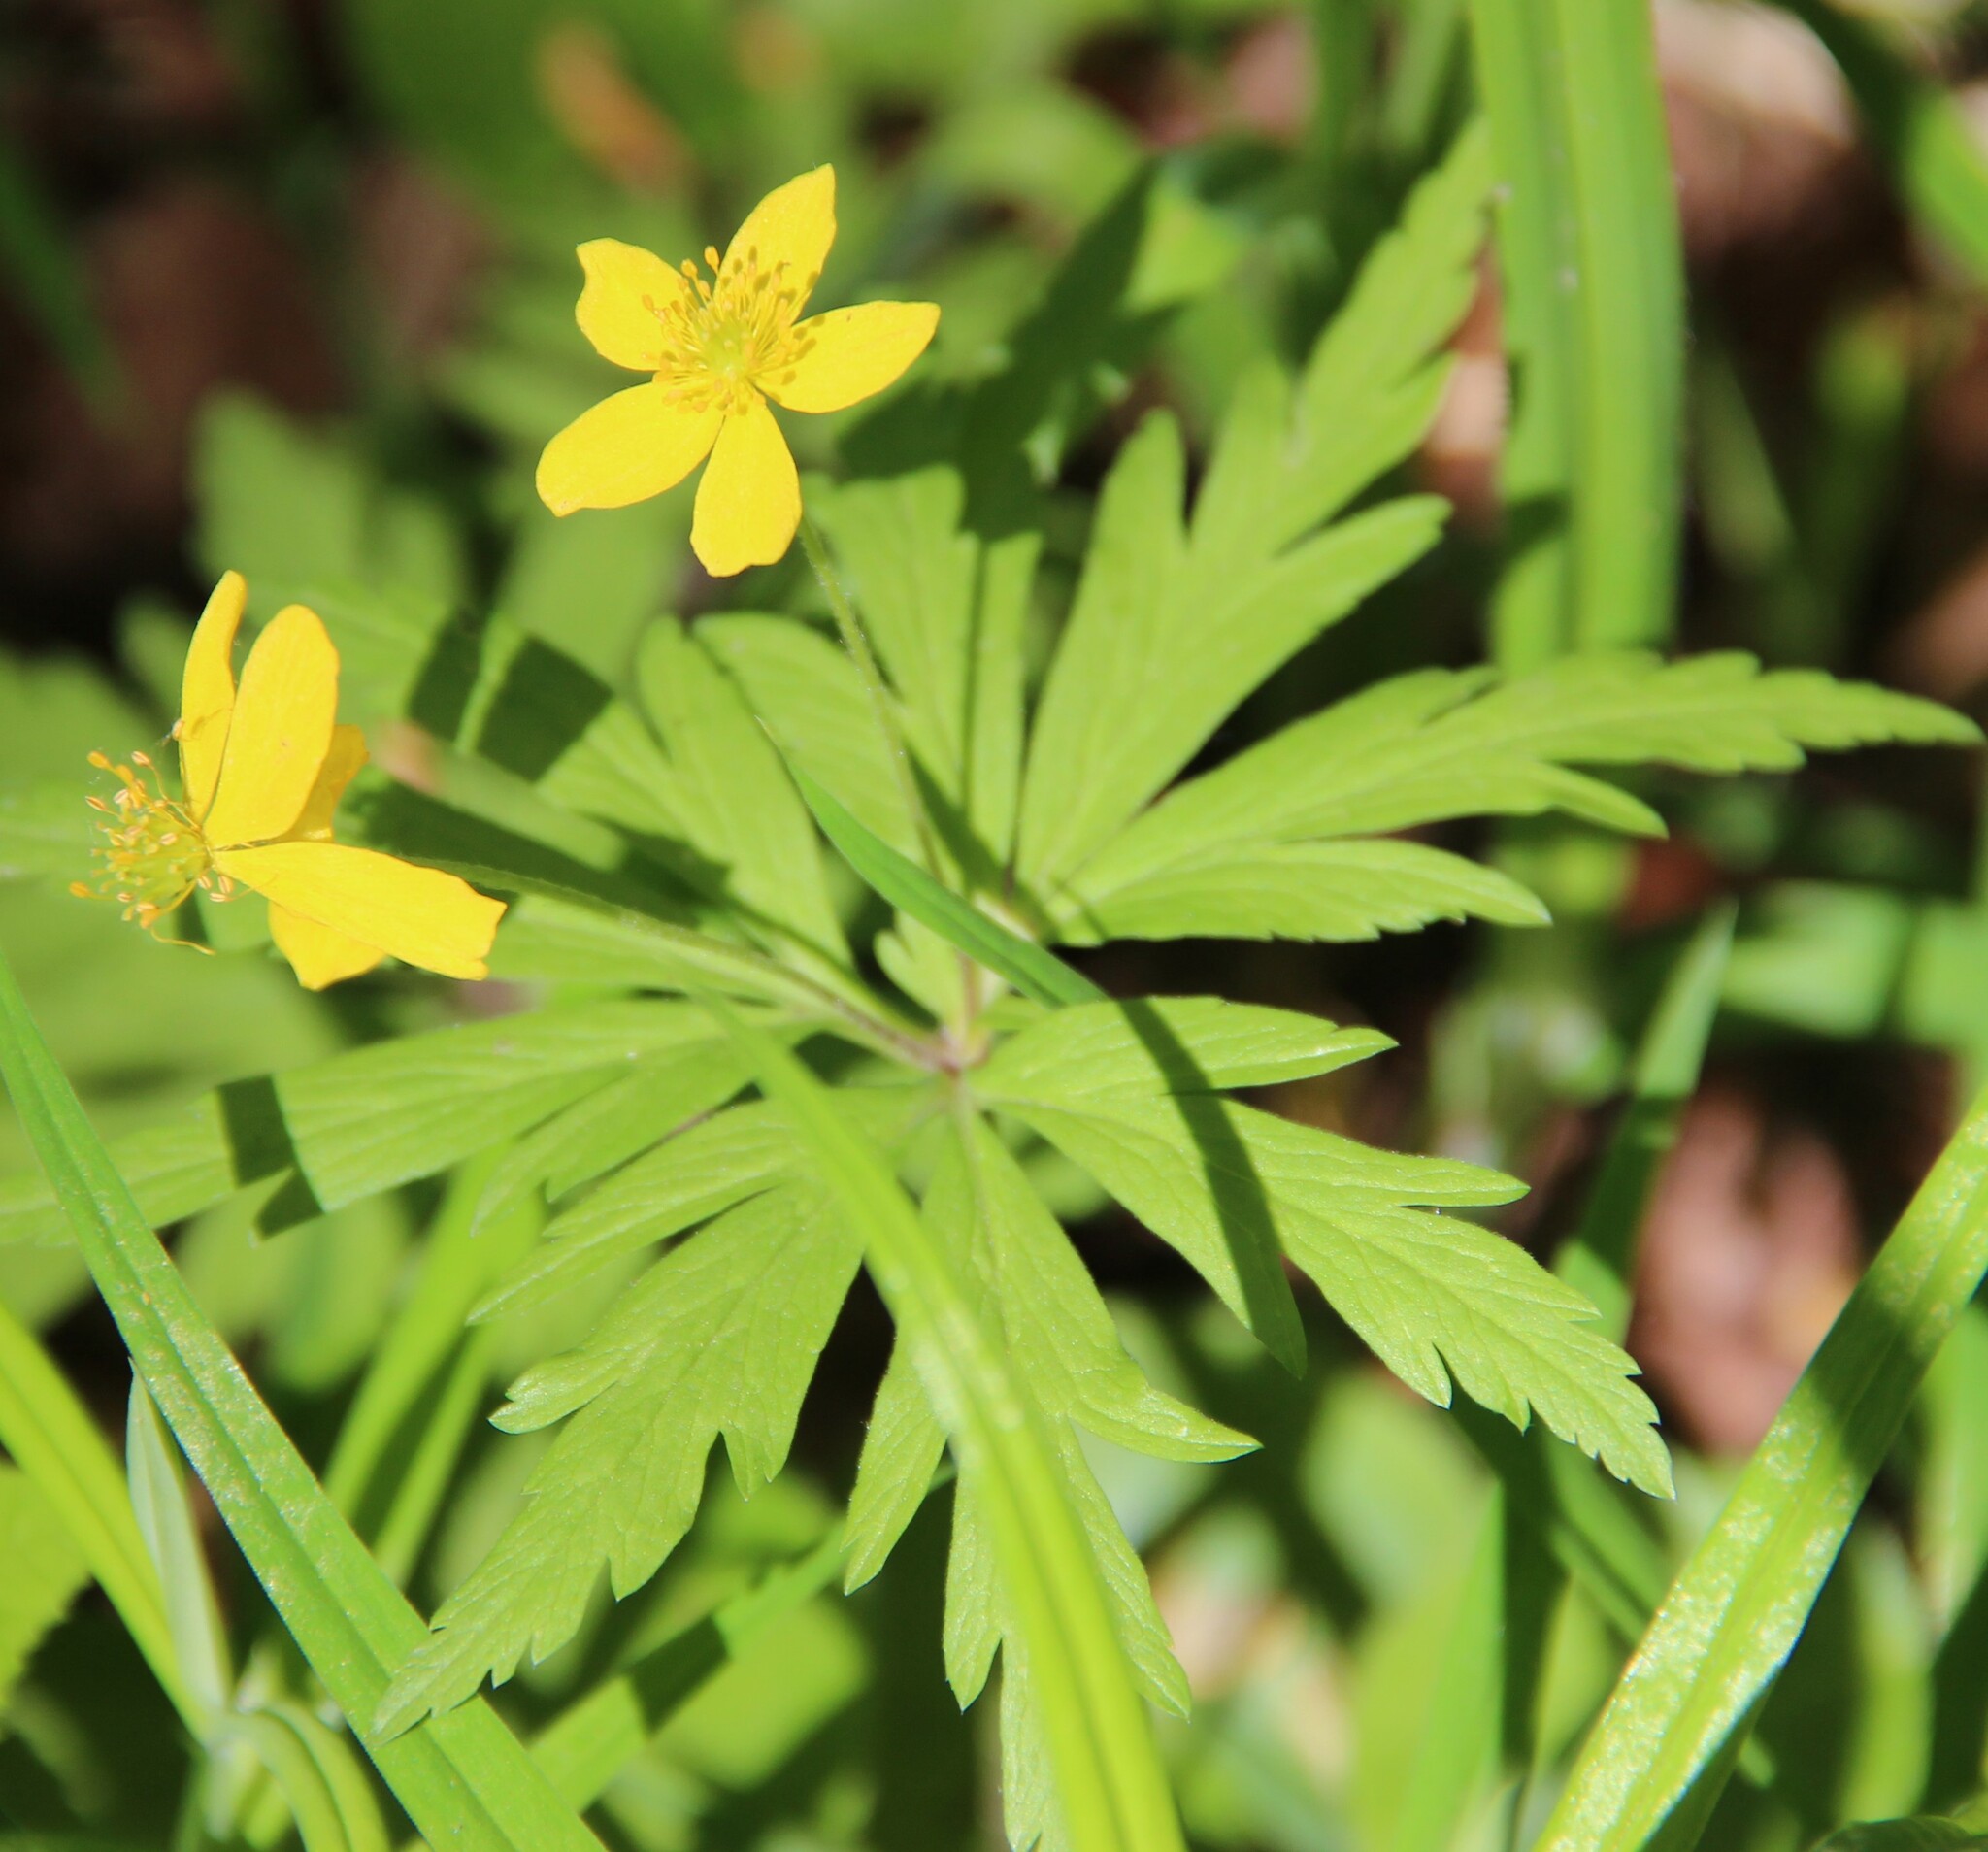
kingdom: Plantae
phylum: Tracheophyta
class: Magnoliopsida
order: Ranunculales
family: Ranunculaceae
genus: Anemone
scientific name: Anemone ranunculoides
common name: Yellow anemone
